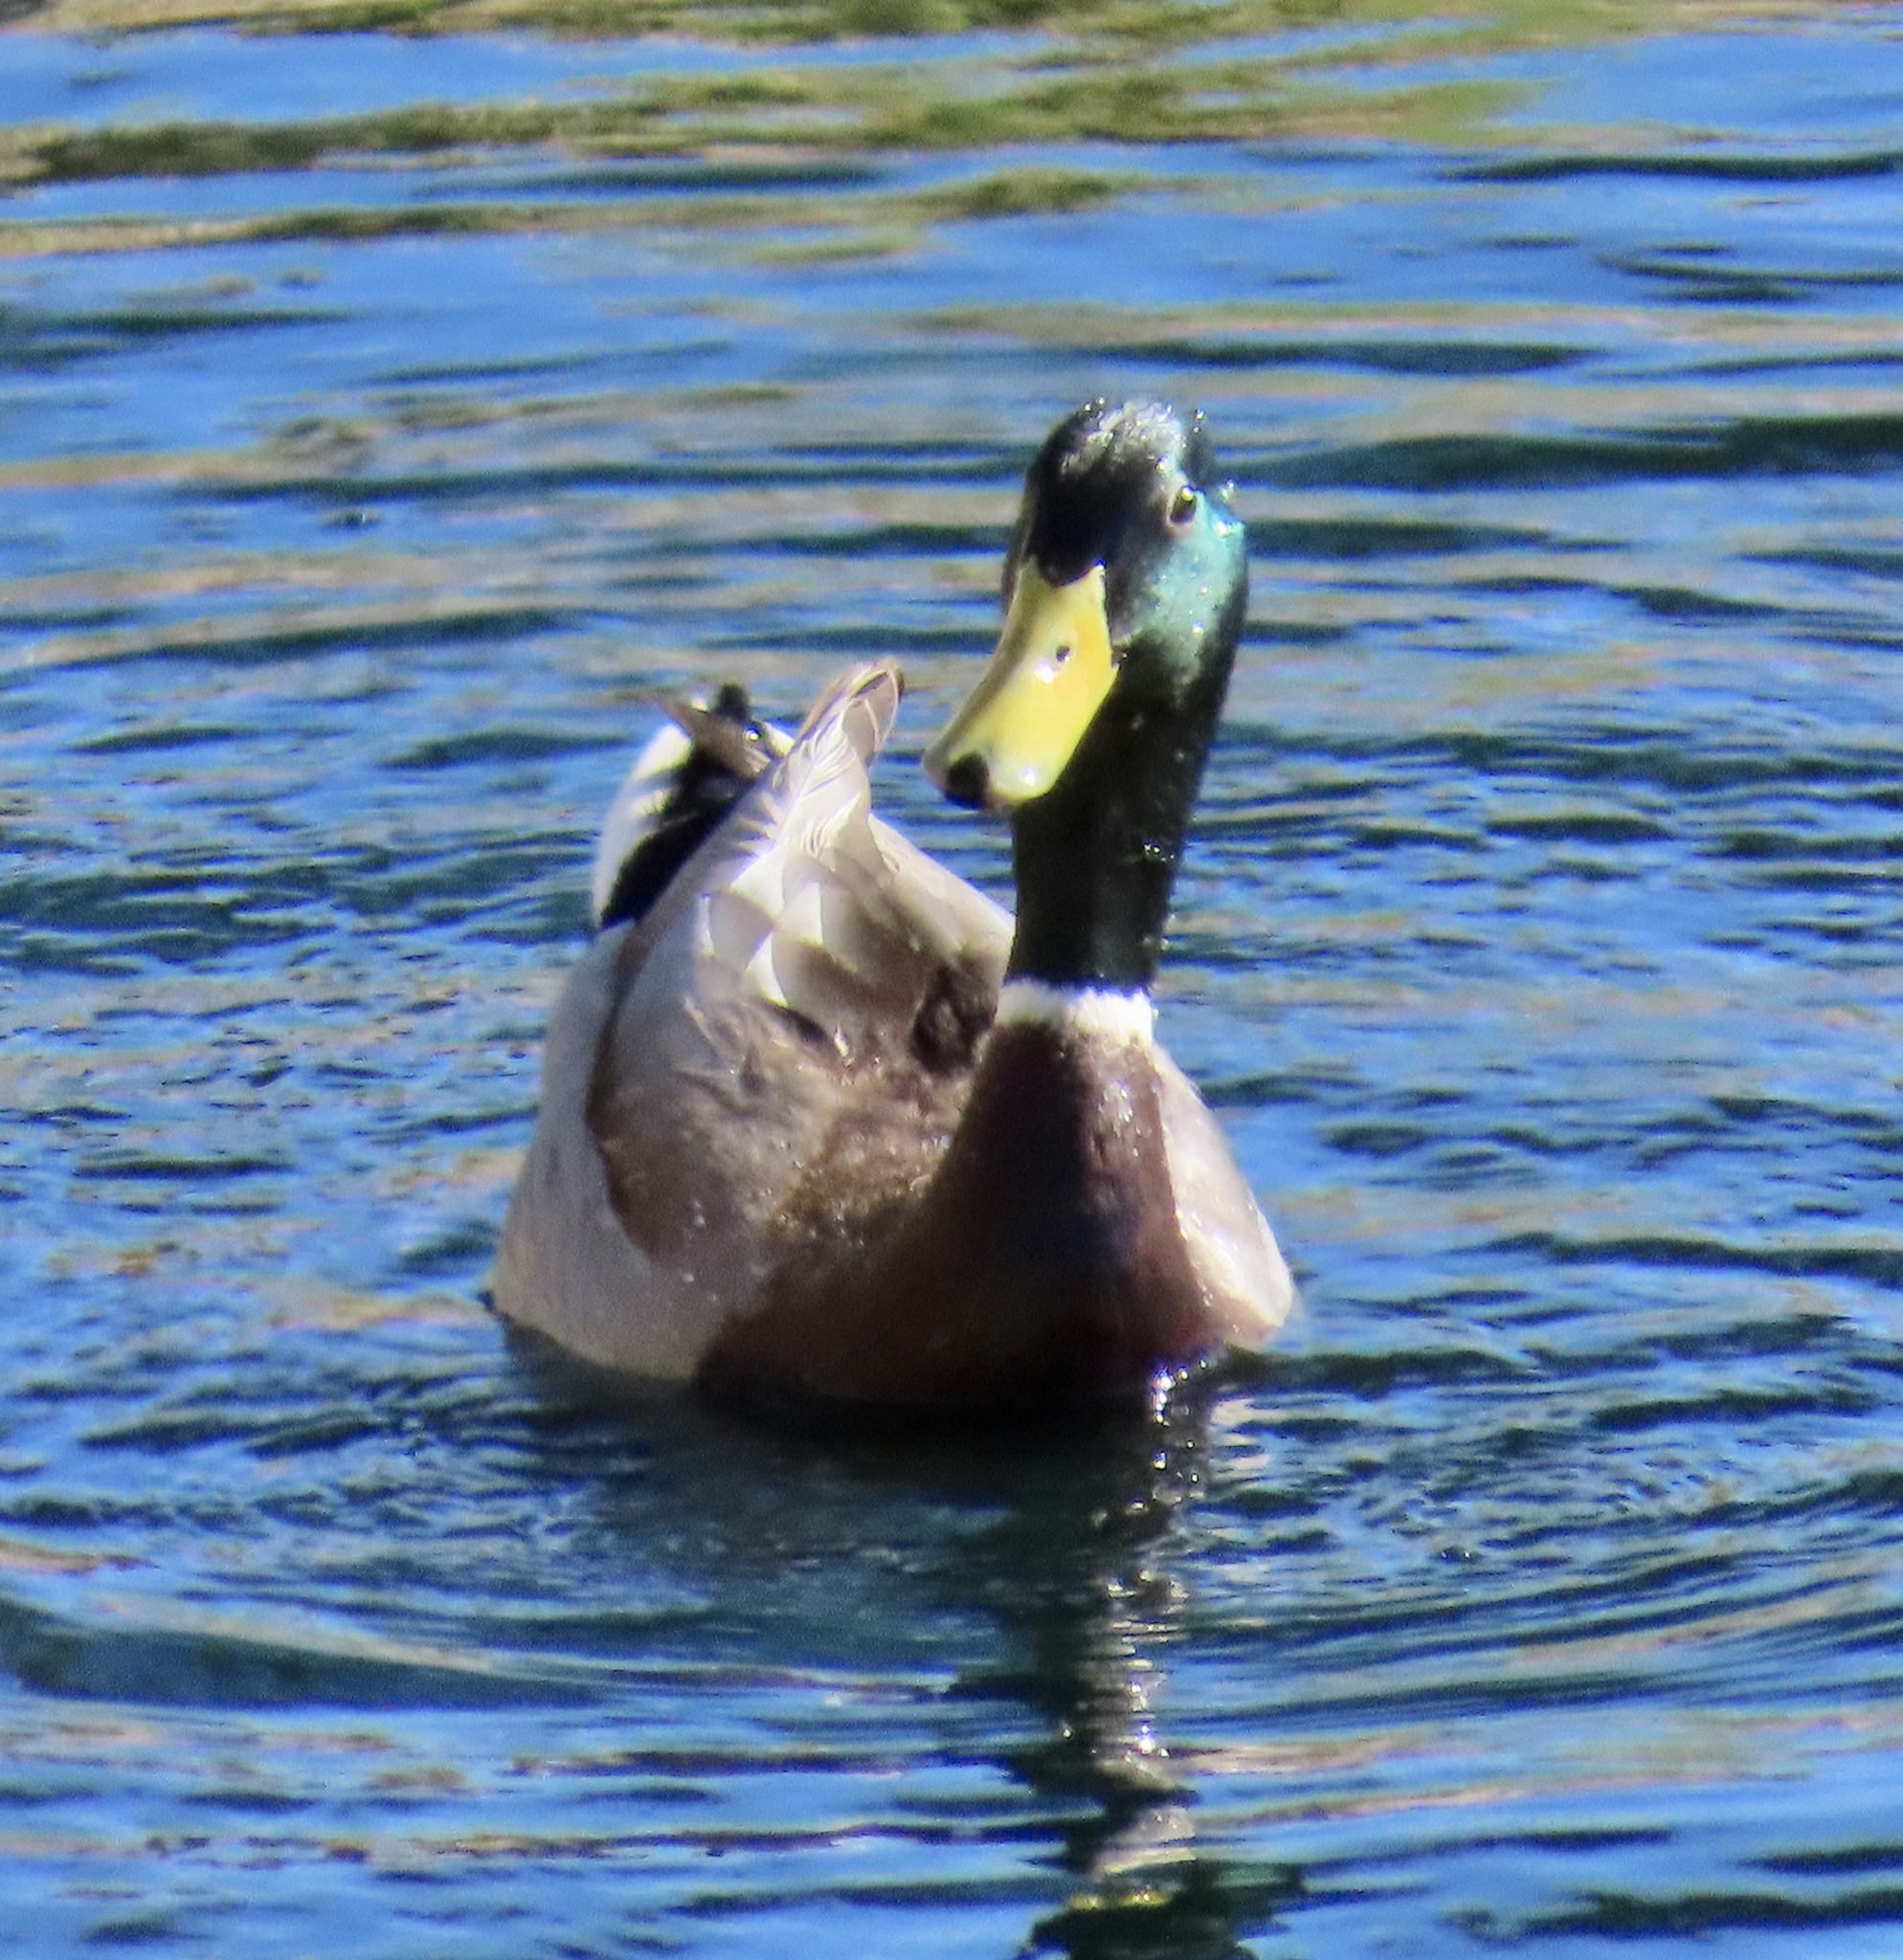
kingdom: Animalia
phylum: Chordata
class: Aves
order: Anseriformes
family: Anatidae
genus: Anas
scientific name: Anas platyrhynchos
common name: Mallard
